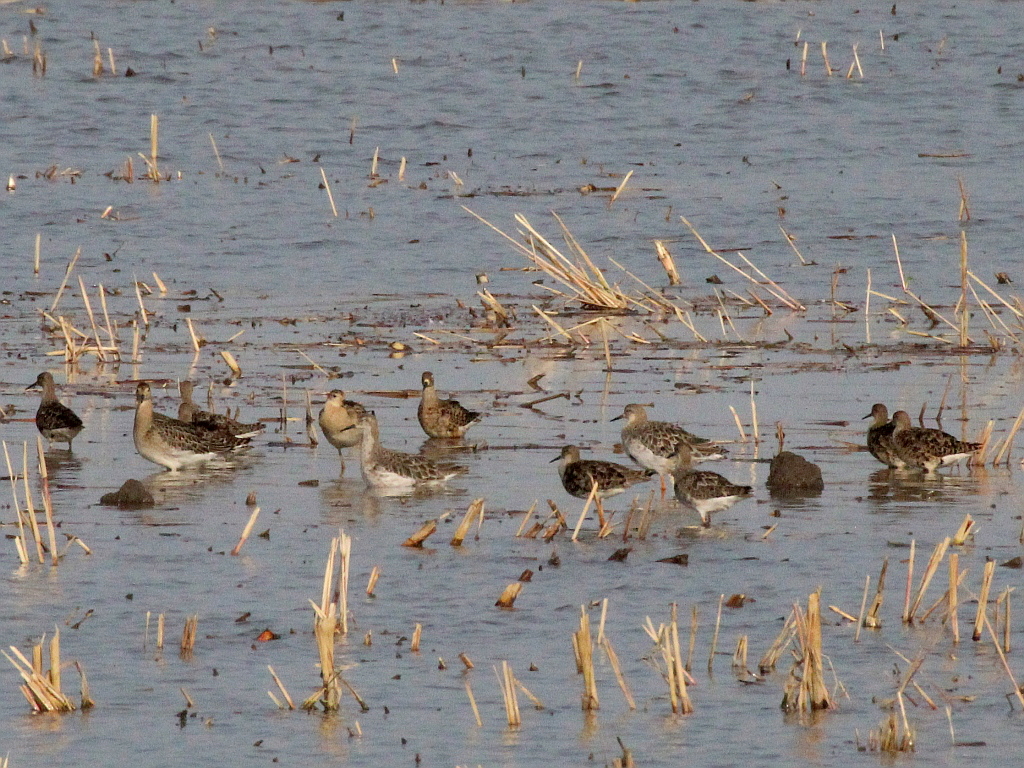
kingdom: Animalia
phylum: Chordata
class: Aves
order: Charadriiformes
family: Scolopacidae
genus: Calidris
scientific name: Calidris pugnax
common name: Ruff
